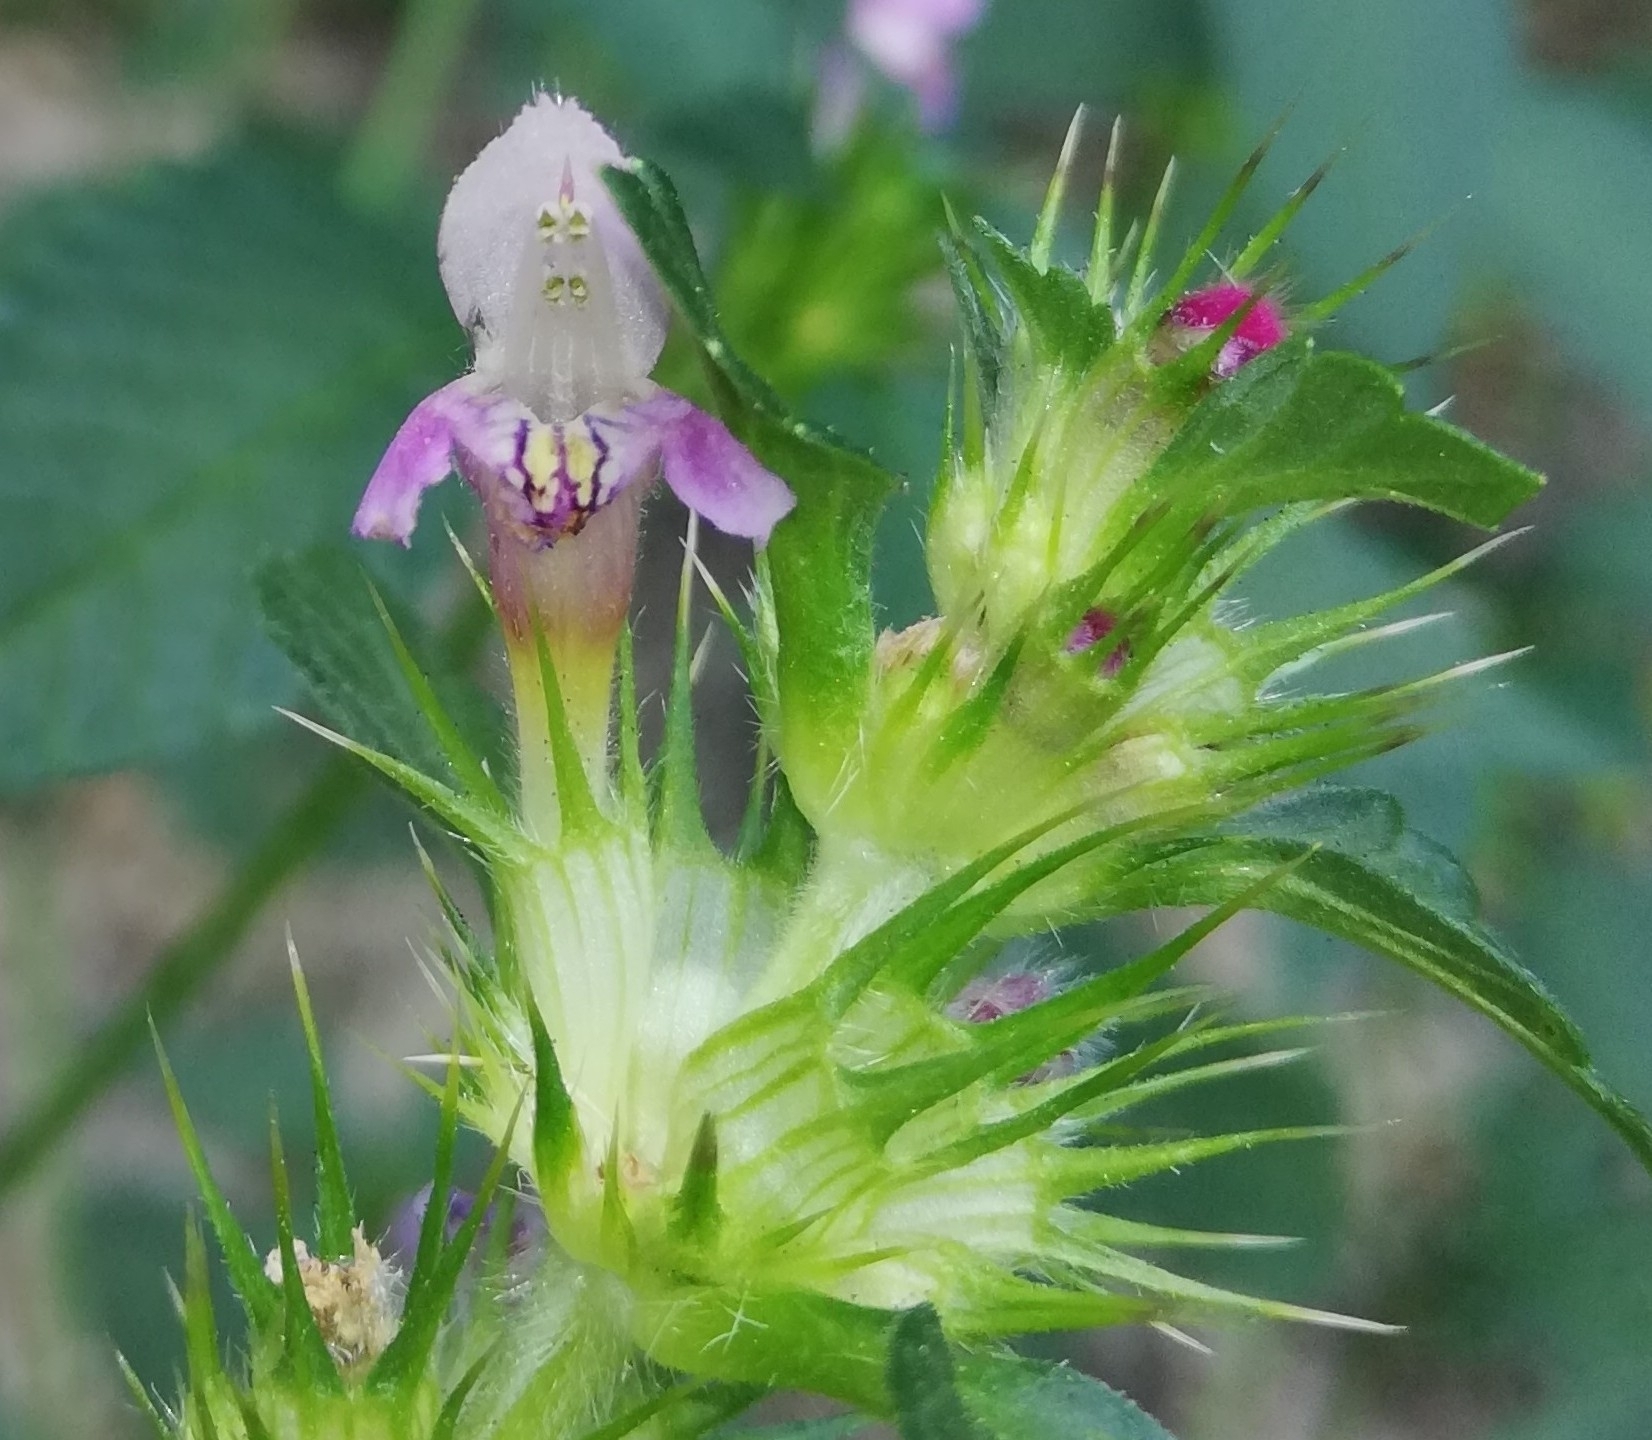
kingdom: Plantae
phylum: Tracheophyta
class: Magnoliopsida
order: Lamiales
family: Lamiaceae
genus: Galeopsis
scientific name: Galeopsis tetrahit
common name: Common hemp-nettle
